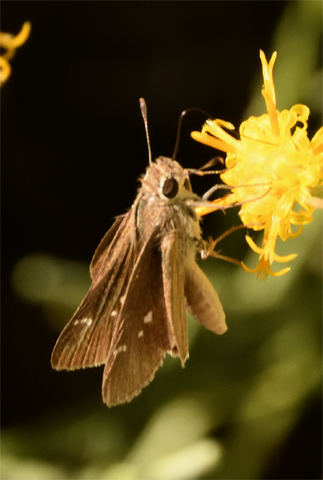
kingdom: Animalia
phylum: Arthropoda
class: Insecta
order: Lepidoptera
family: Hesperiidae
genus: Lerodea
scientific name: Lerodea eufala
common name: Eufala skipper
